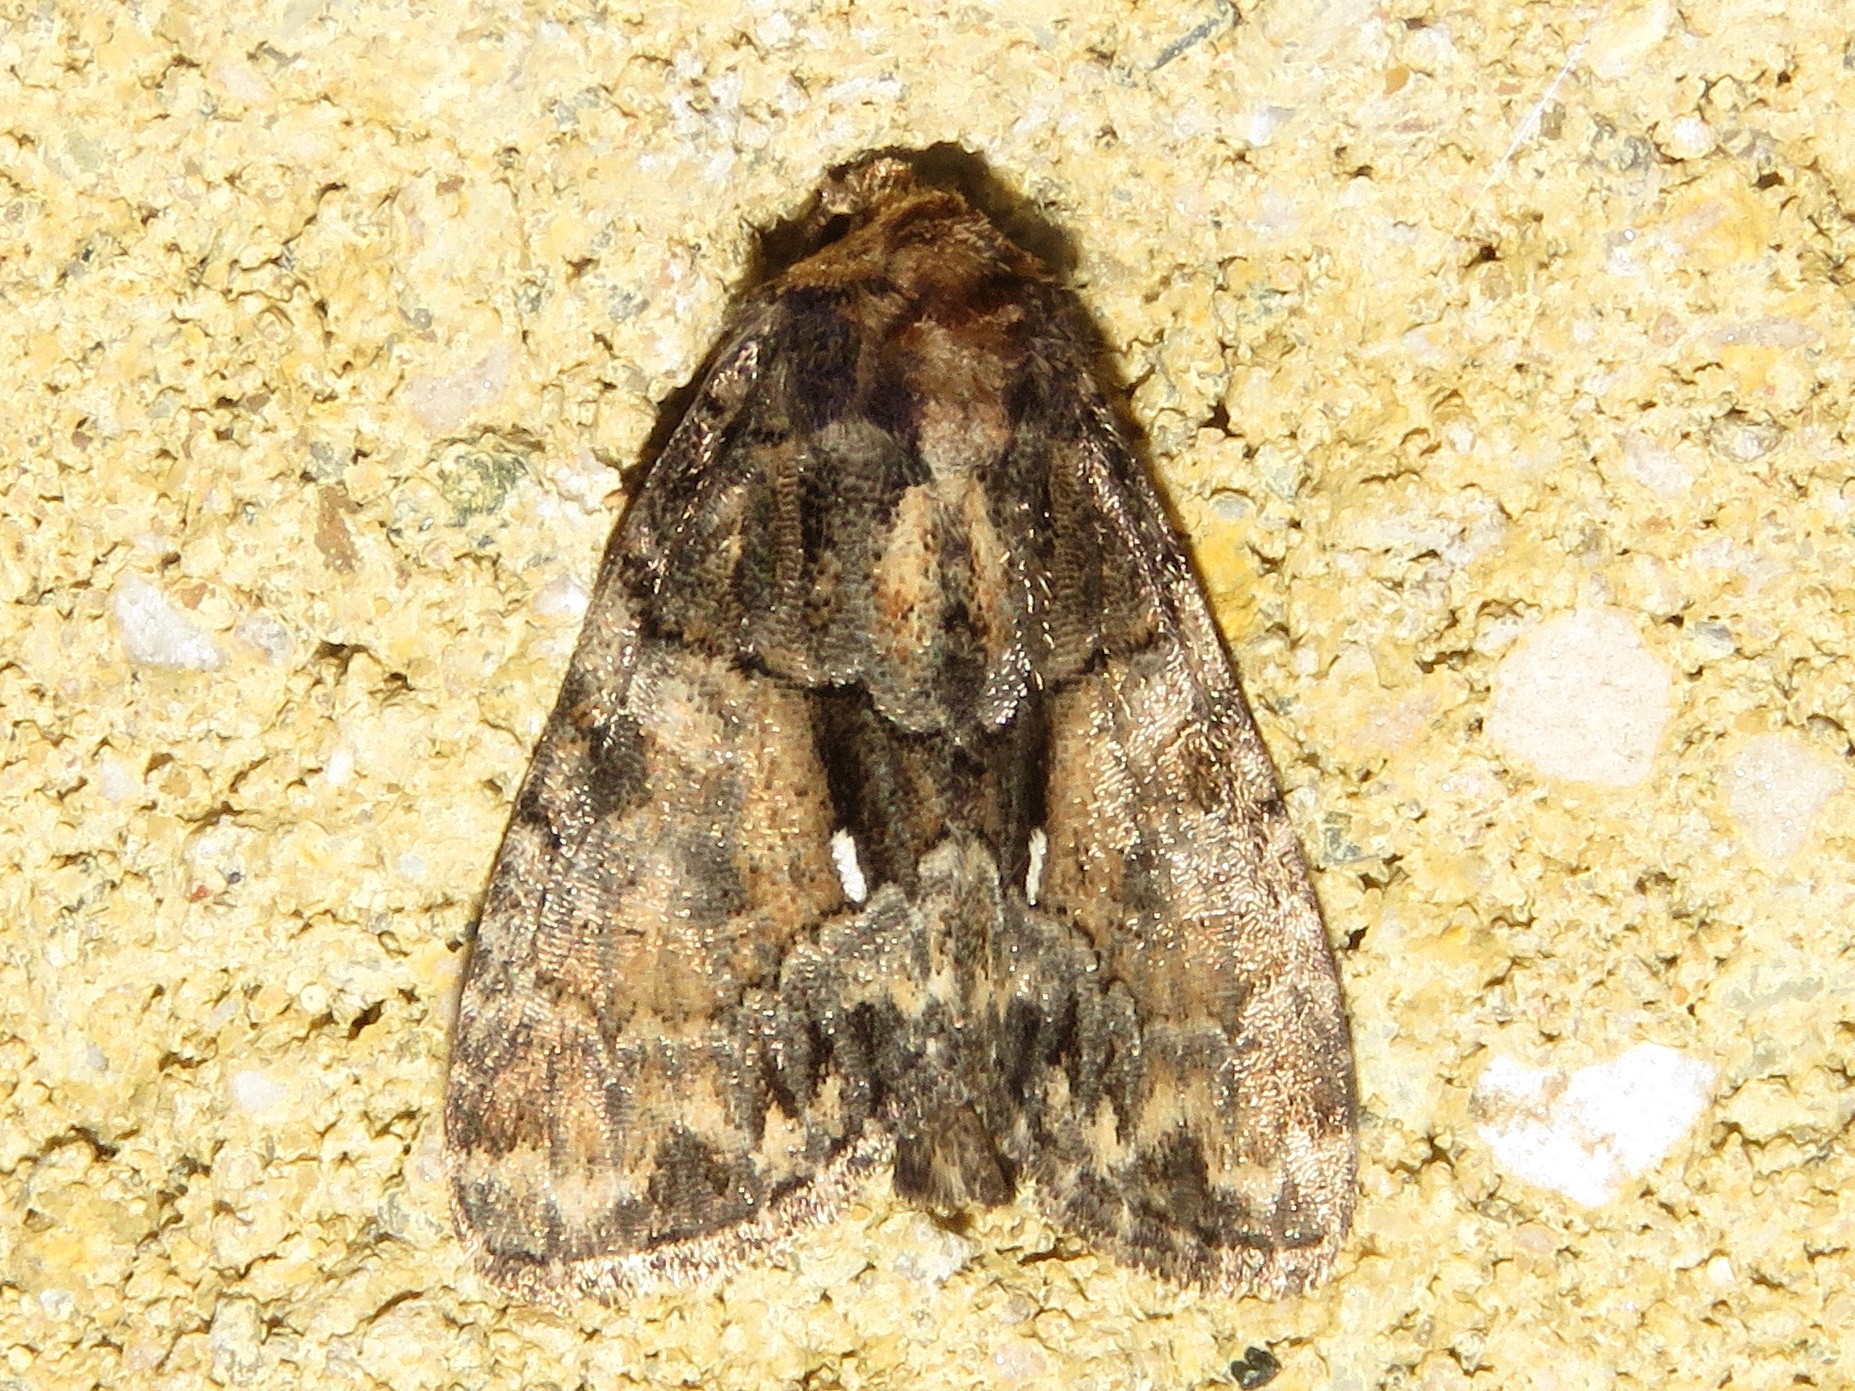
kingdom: Animalia
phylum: Arthropoda
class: Insecta
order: Lepidoptera
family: Noctuidae
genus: Chytonix
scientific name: Chytonix palliatricula
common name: Cloaked marvel
